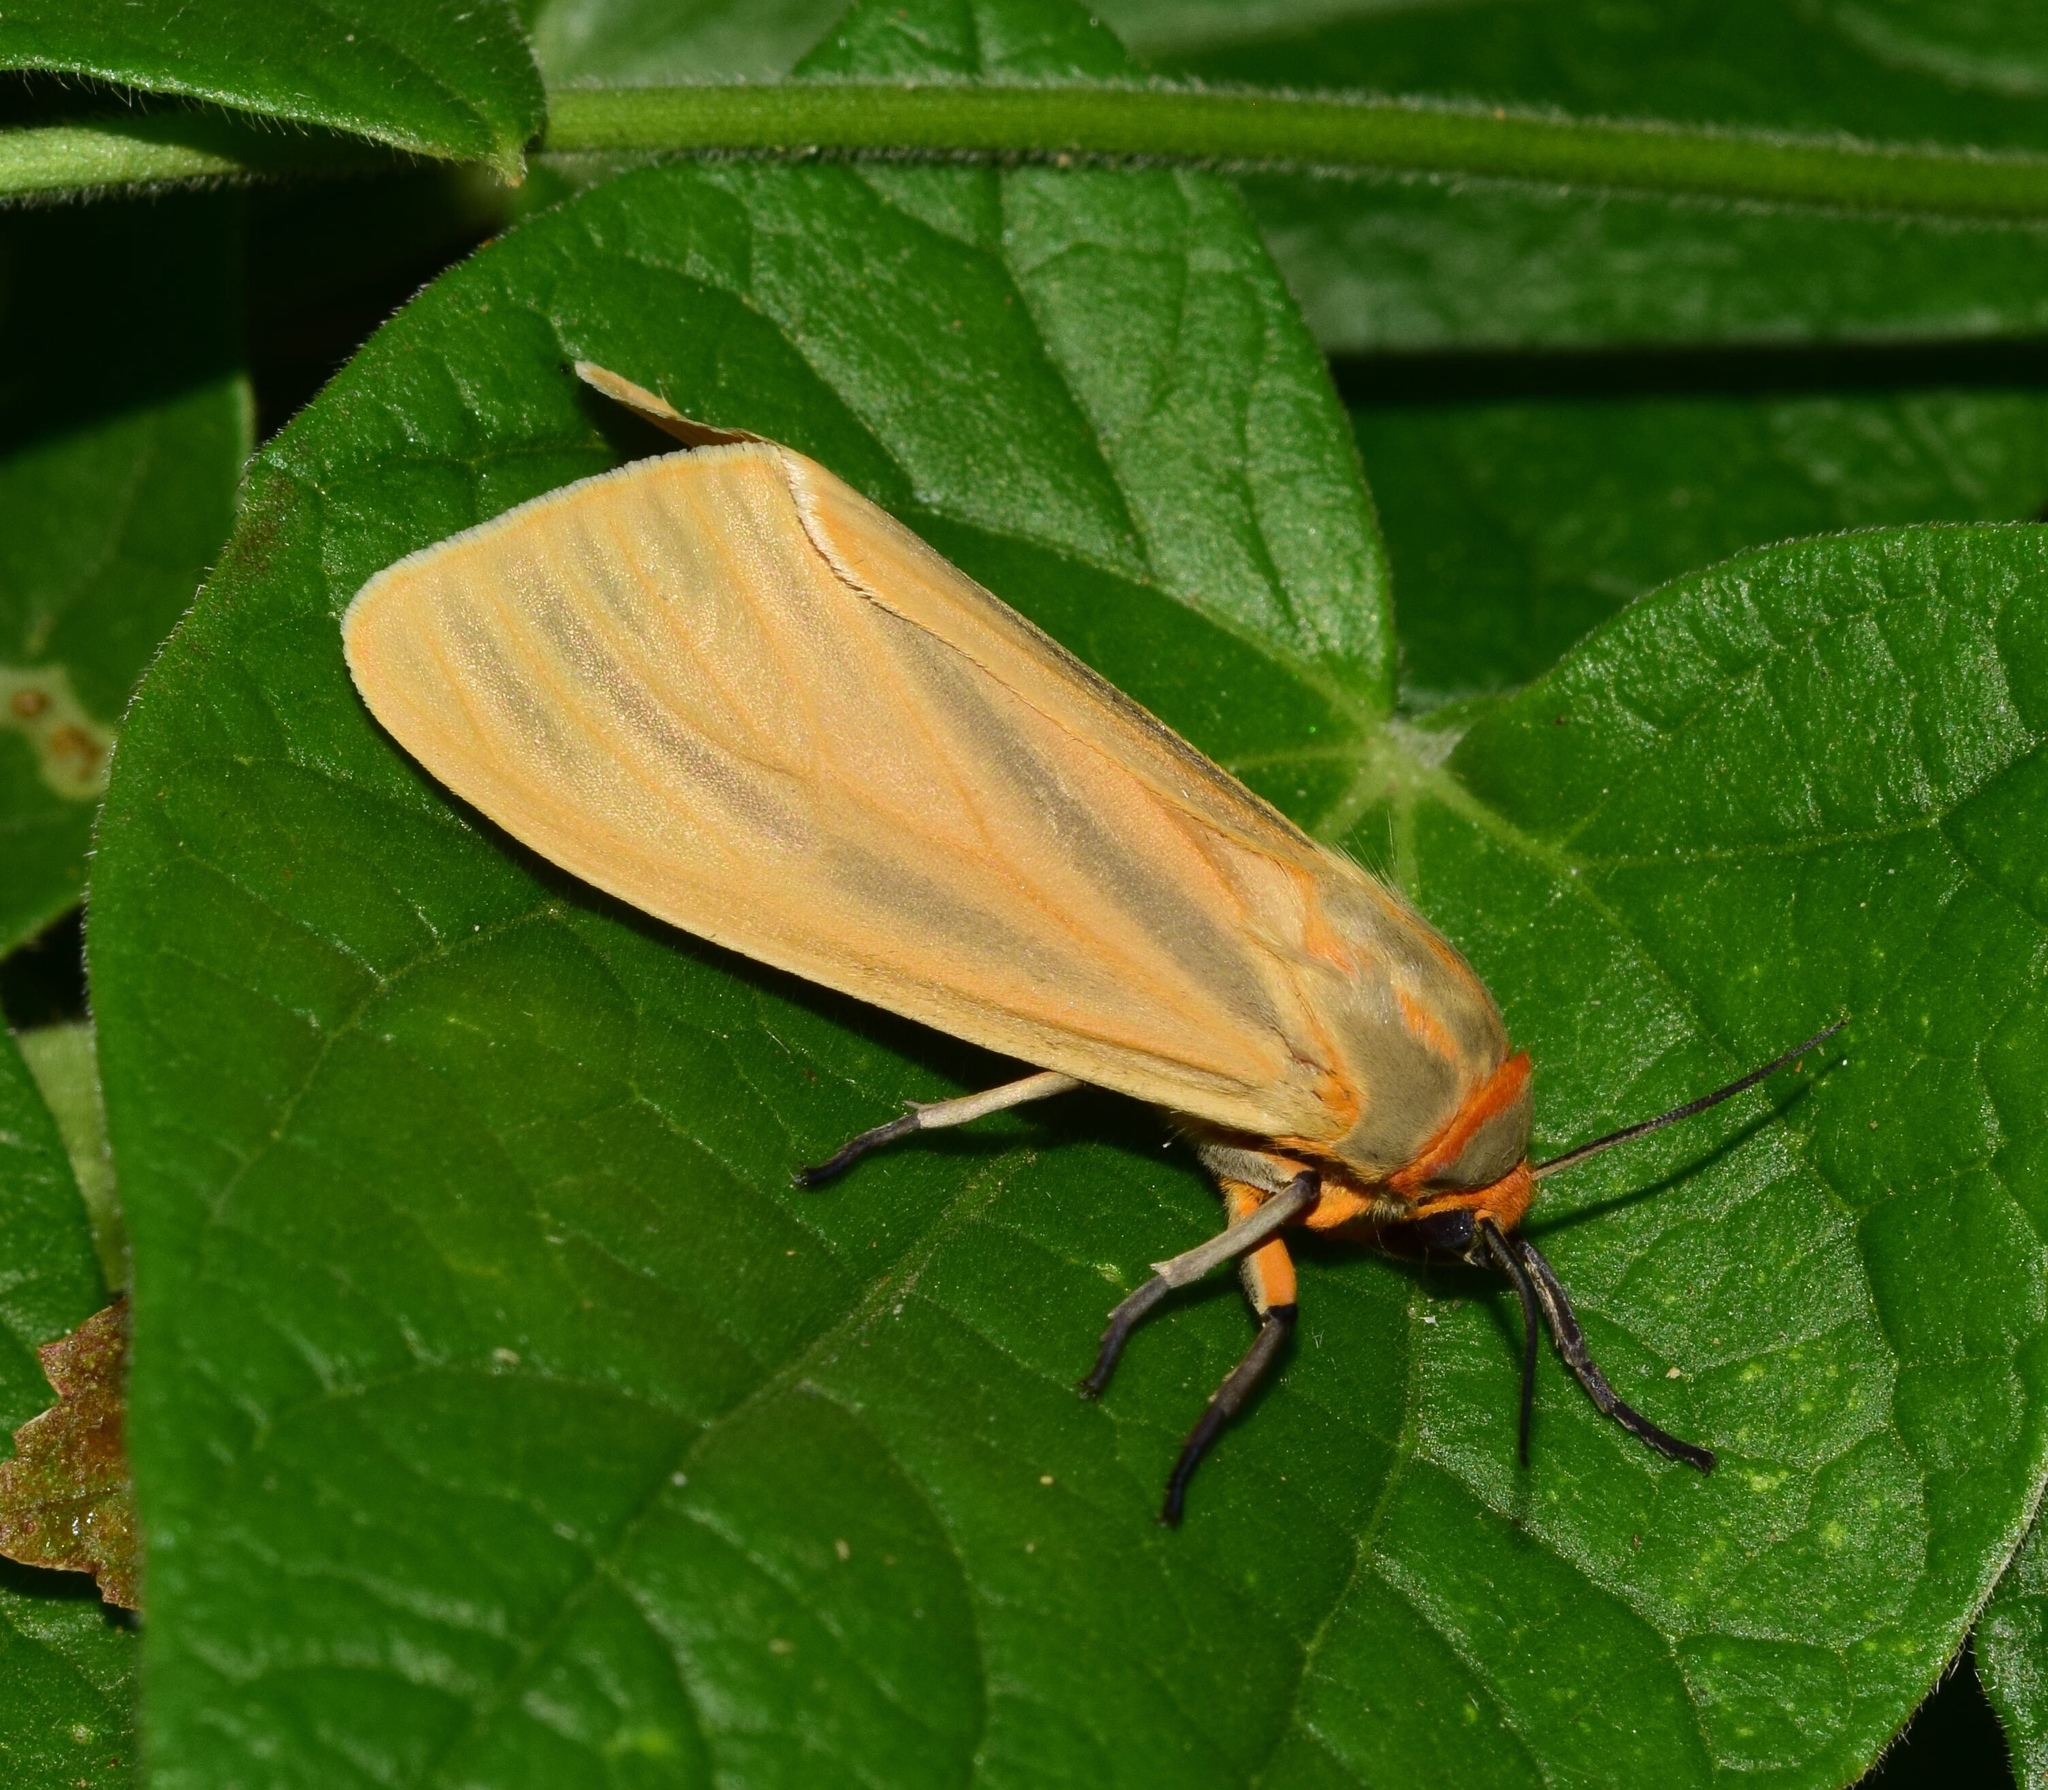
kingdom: Animalia
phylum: Arthropoda
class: Insecta
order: Lepidoptera
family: Erebidae
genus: Afromurzinia
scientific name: Afromurzinia lutescens
